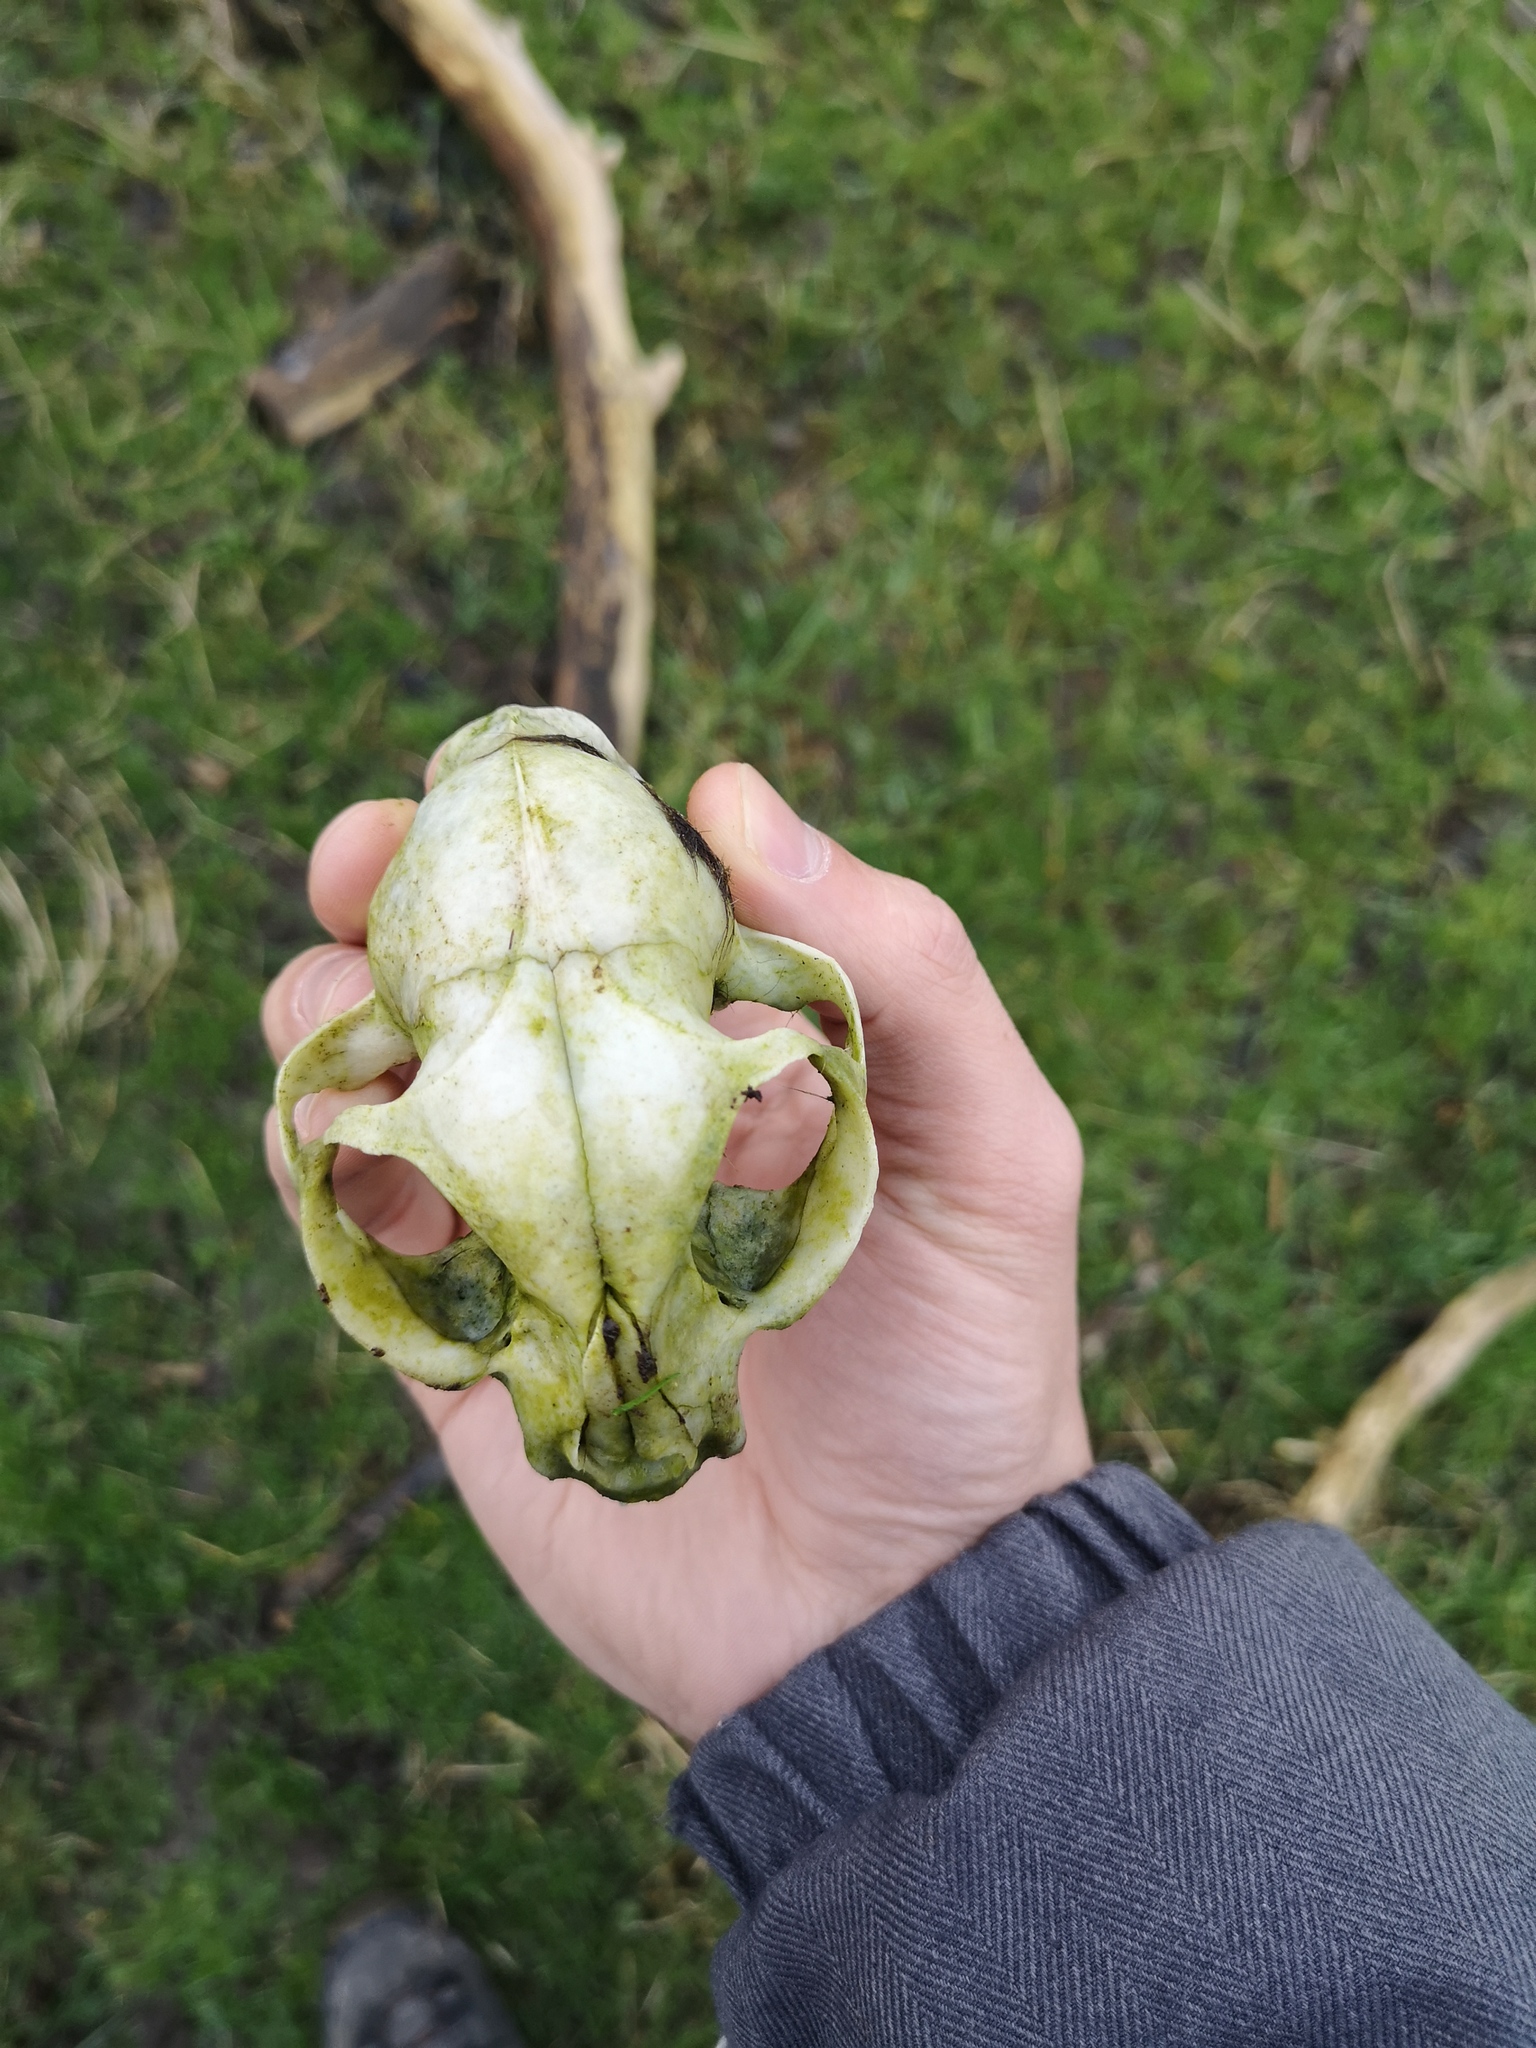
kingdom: Animalia
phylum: Chordata
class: Mammalia
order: Carnivora
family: Felidae
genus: Felis
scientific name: Felis catus
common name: Domestic cat
